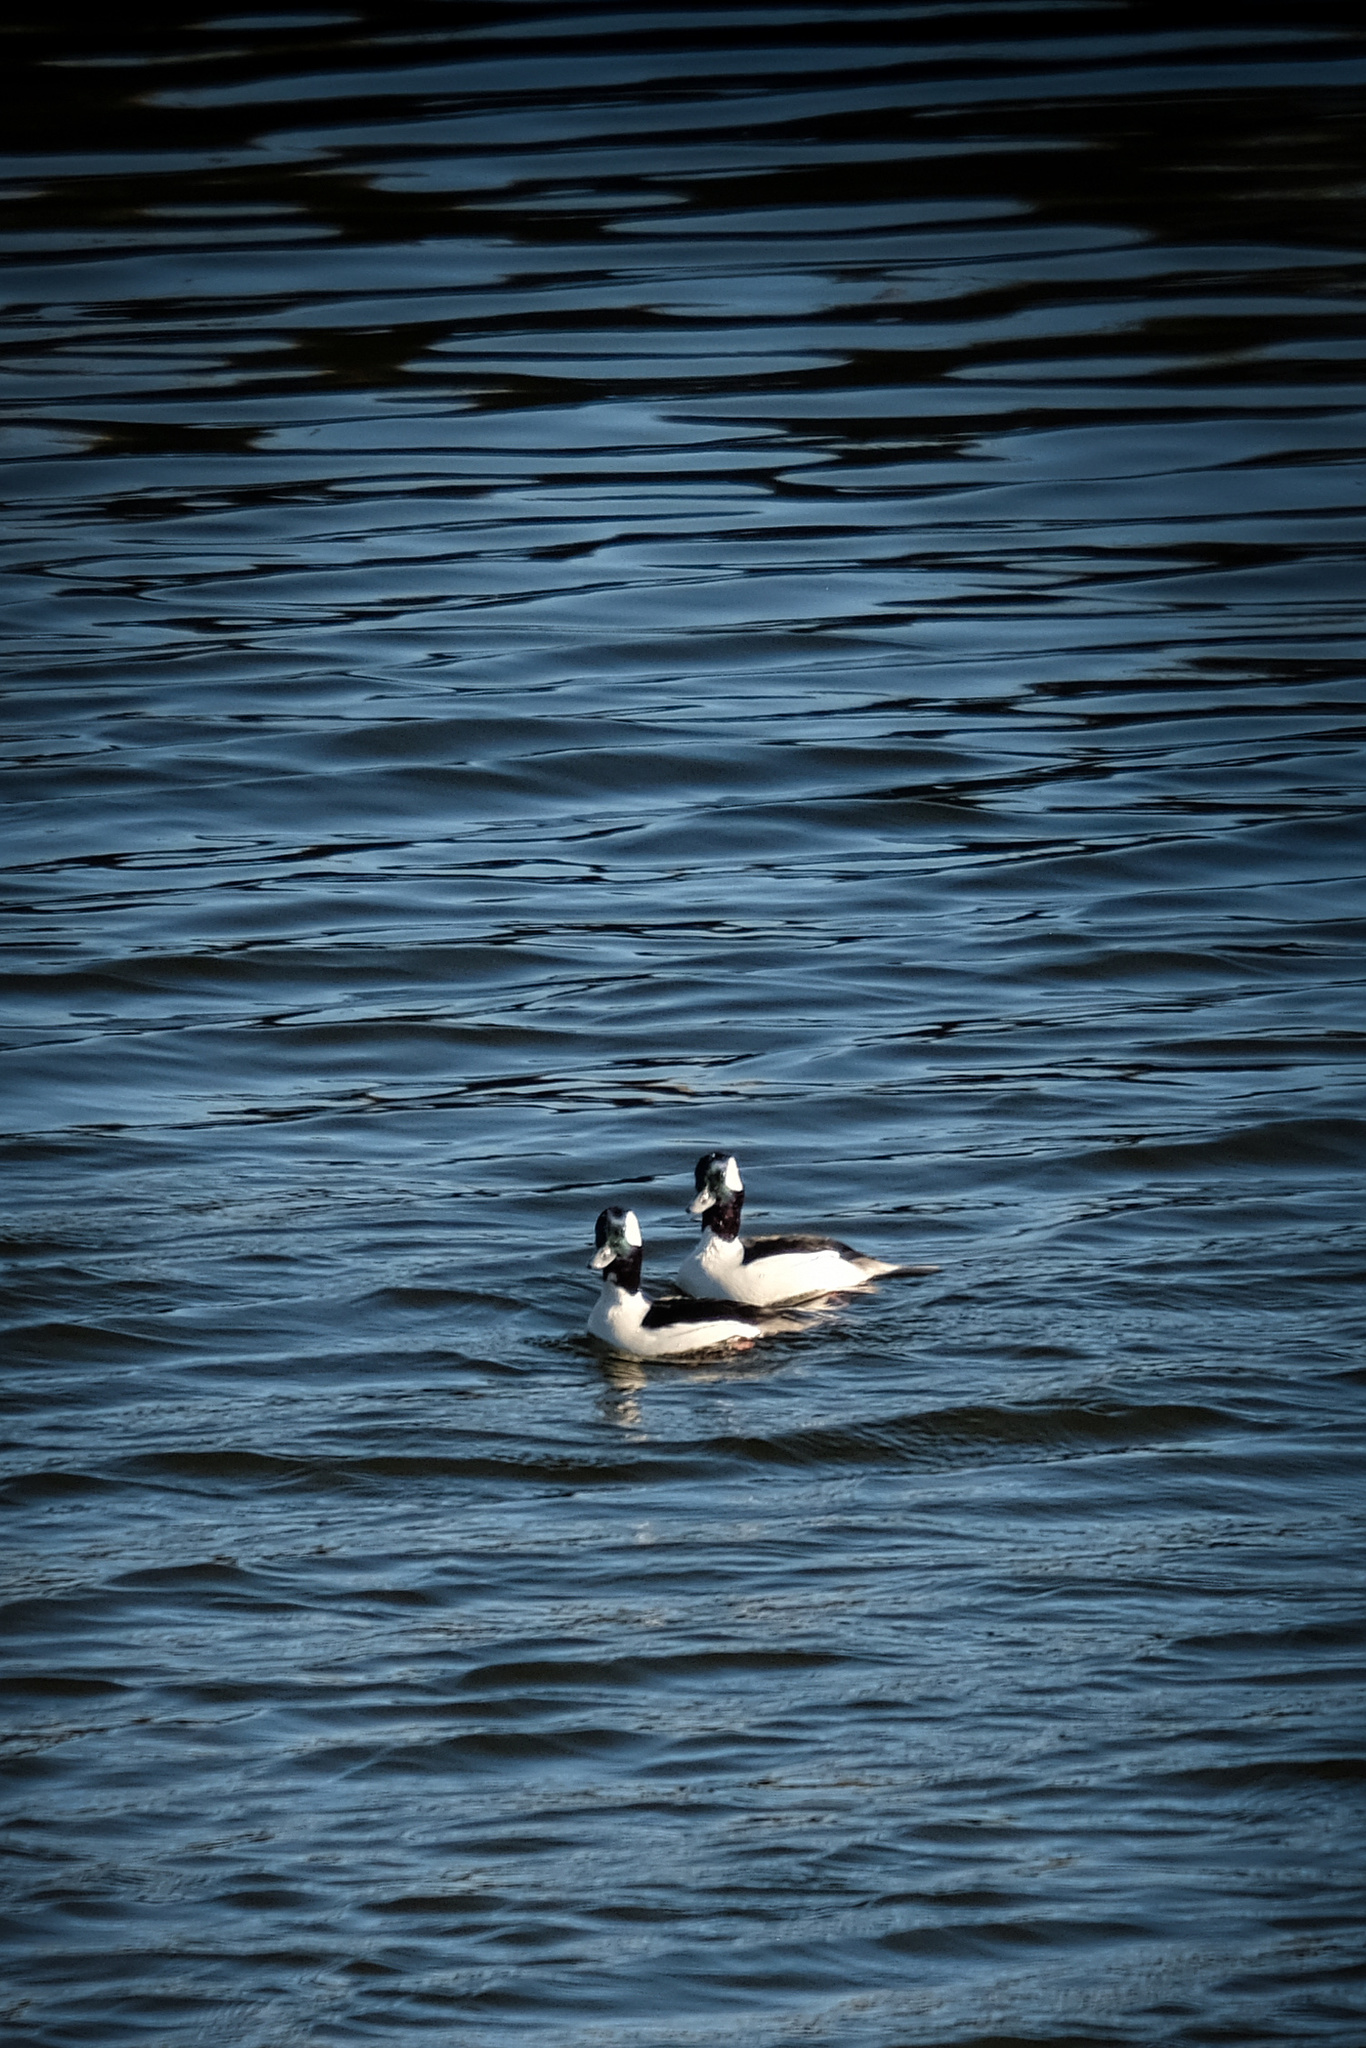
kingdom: Animalia
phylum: Chordata
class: Aves
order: Anseriformes
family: Anatidae
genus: Bucephala
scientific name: Bucephala albeola
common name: Bufflehead
